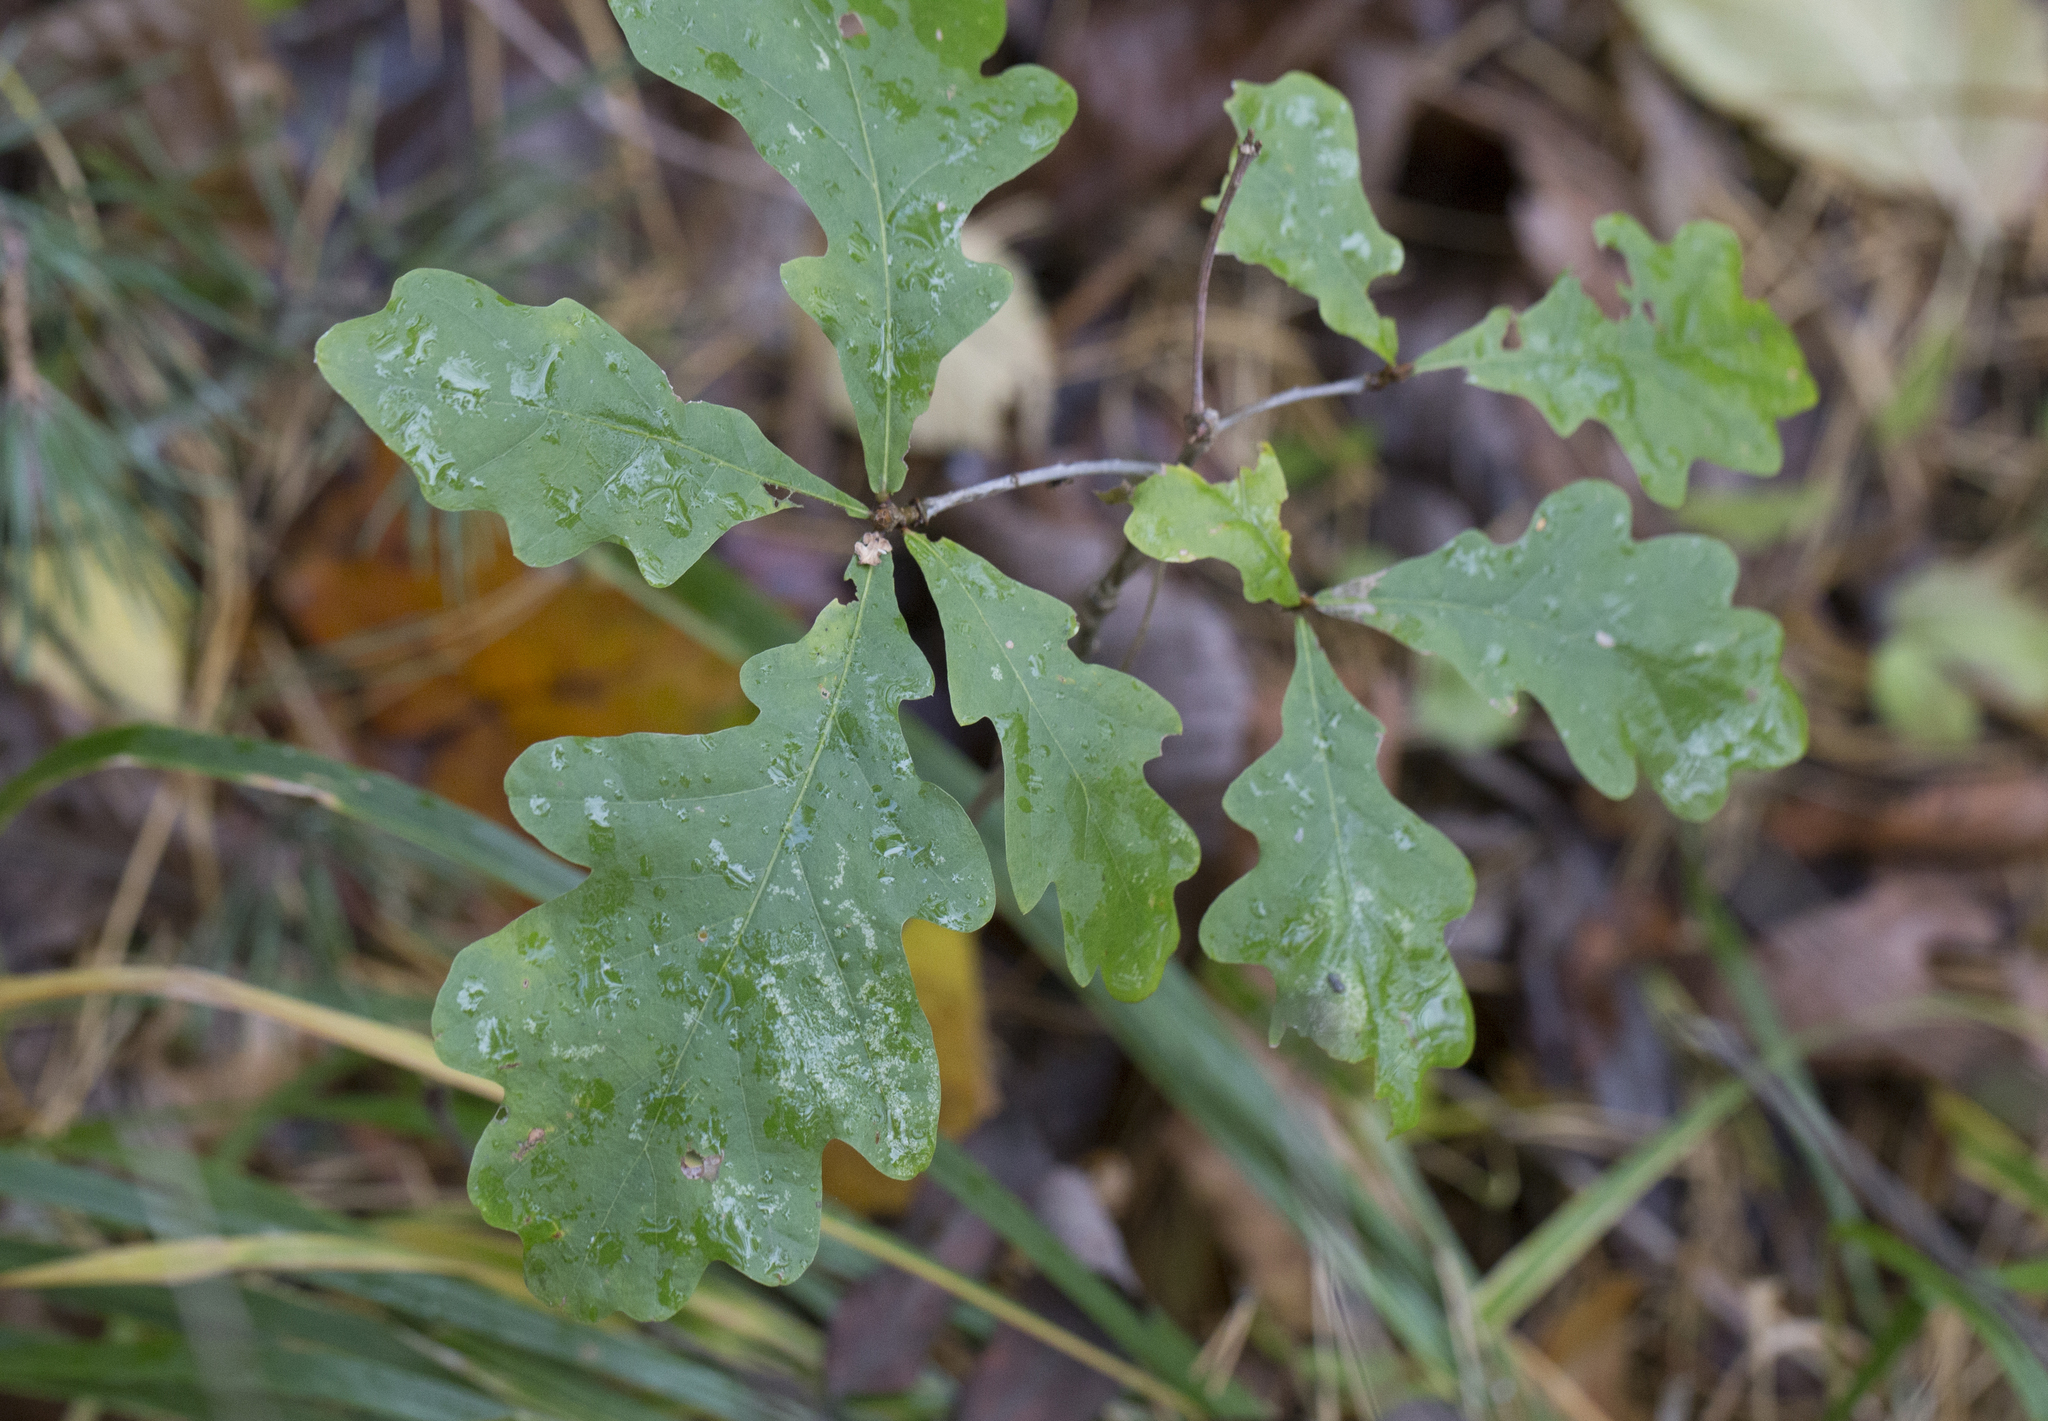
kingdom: Plantae
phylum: Tracheophyta
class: Magnoliopsida
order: Fagales
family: Fagaceae
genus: Quercus
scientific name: Quercus robur
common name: Pedunculate oak
